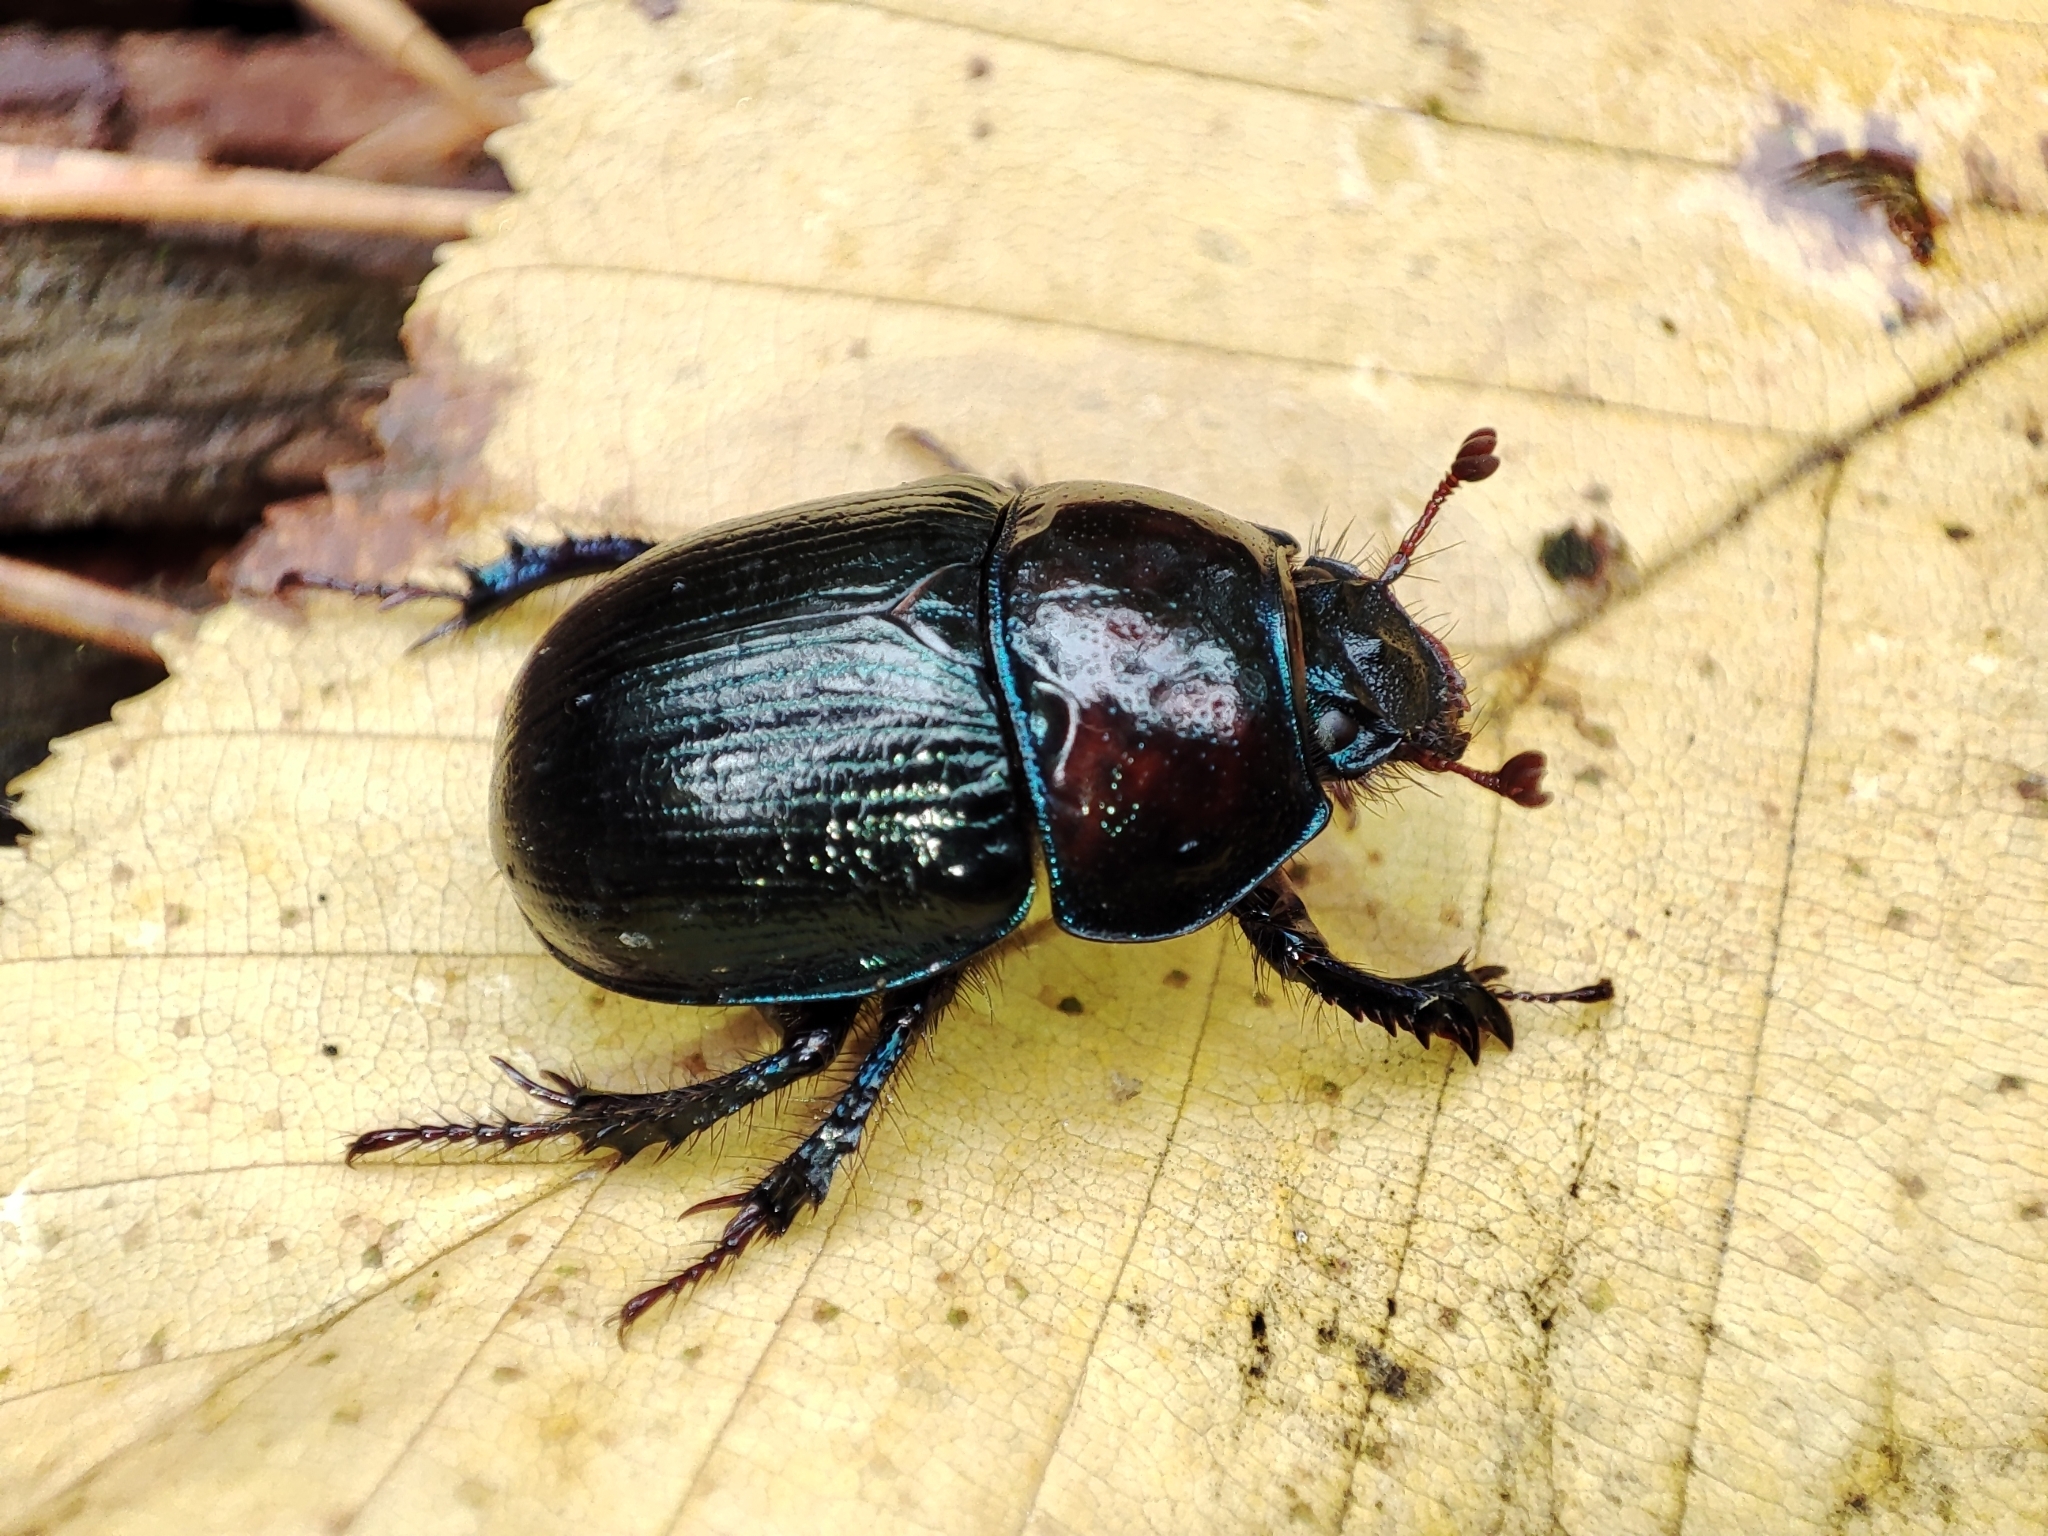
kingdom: Animalia
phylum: Arthropoda
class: Insecta
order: Coleoptera
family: Geotrupidae
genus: Anoplotrupes
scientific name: Anoplotrupes stercorosus
